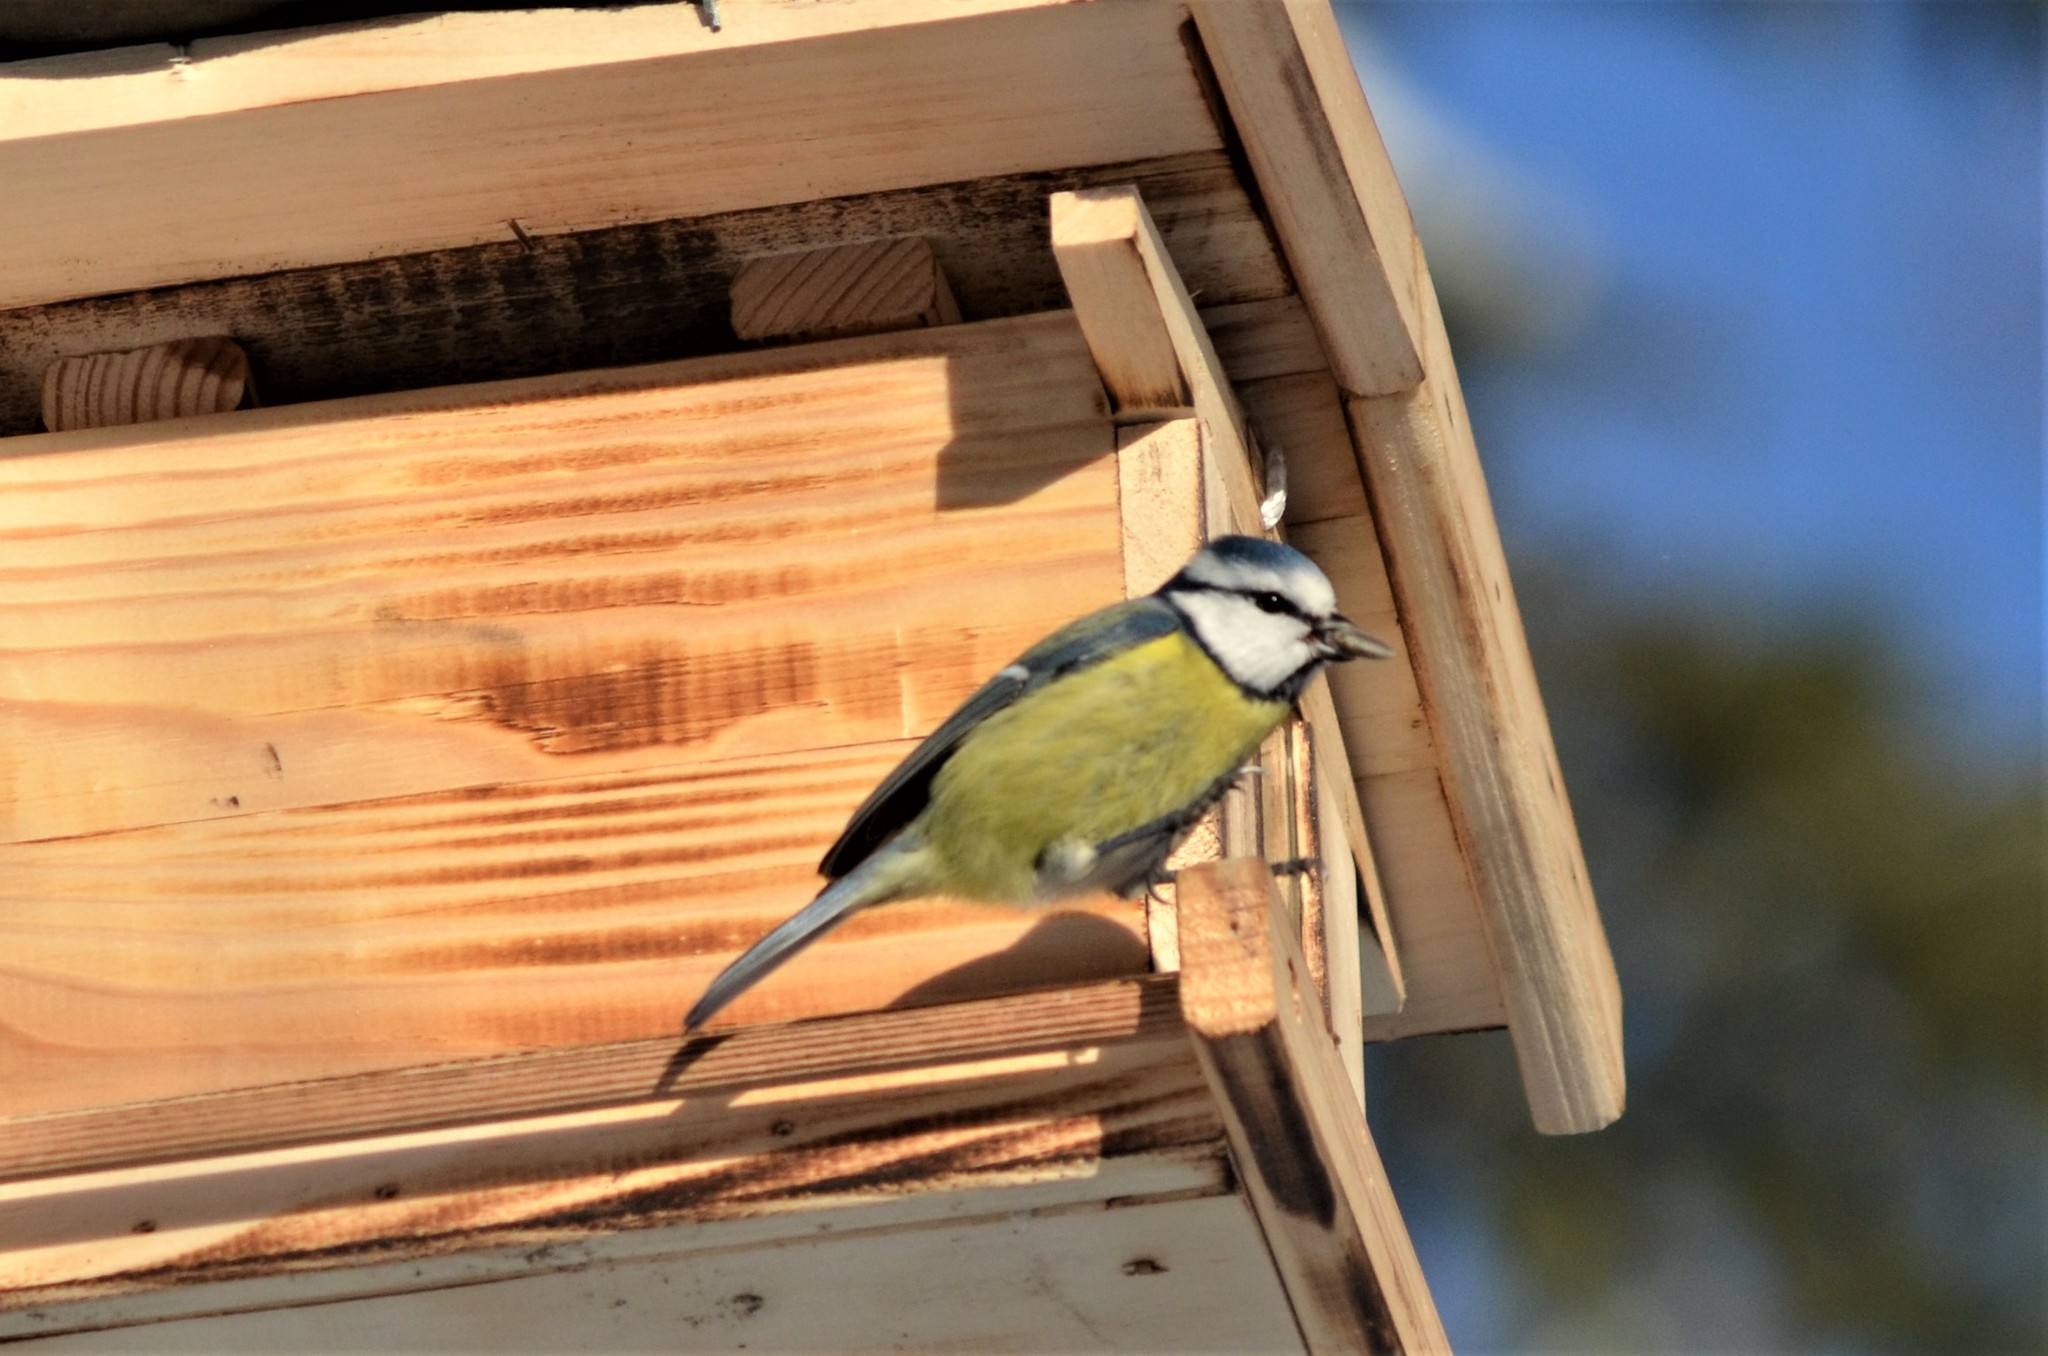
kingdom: Animalia
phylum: Chordata
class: Aves
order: Passeriformes
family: Paridae
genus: Cyanistes
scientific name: Cyanistes caeruleus
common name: Eurasian blue tit
